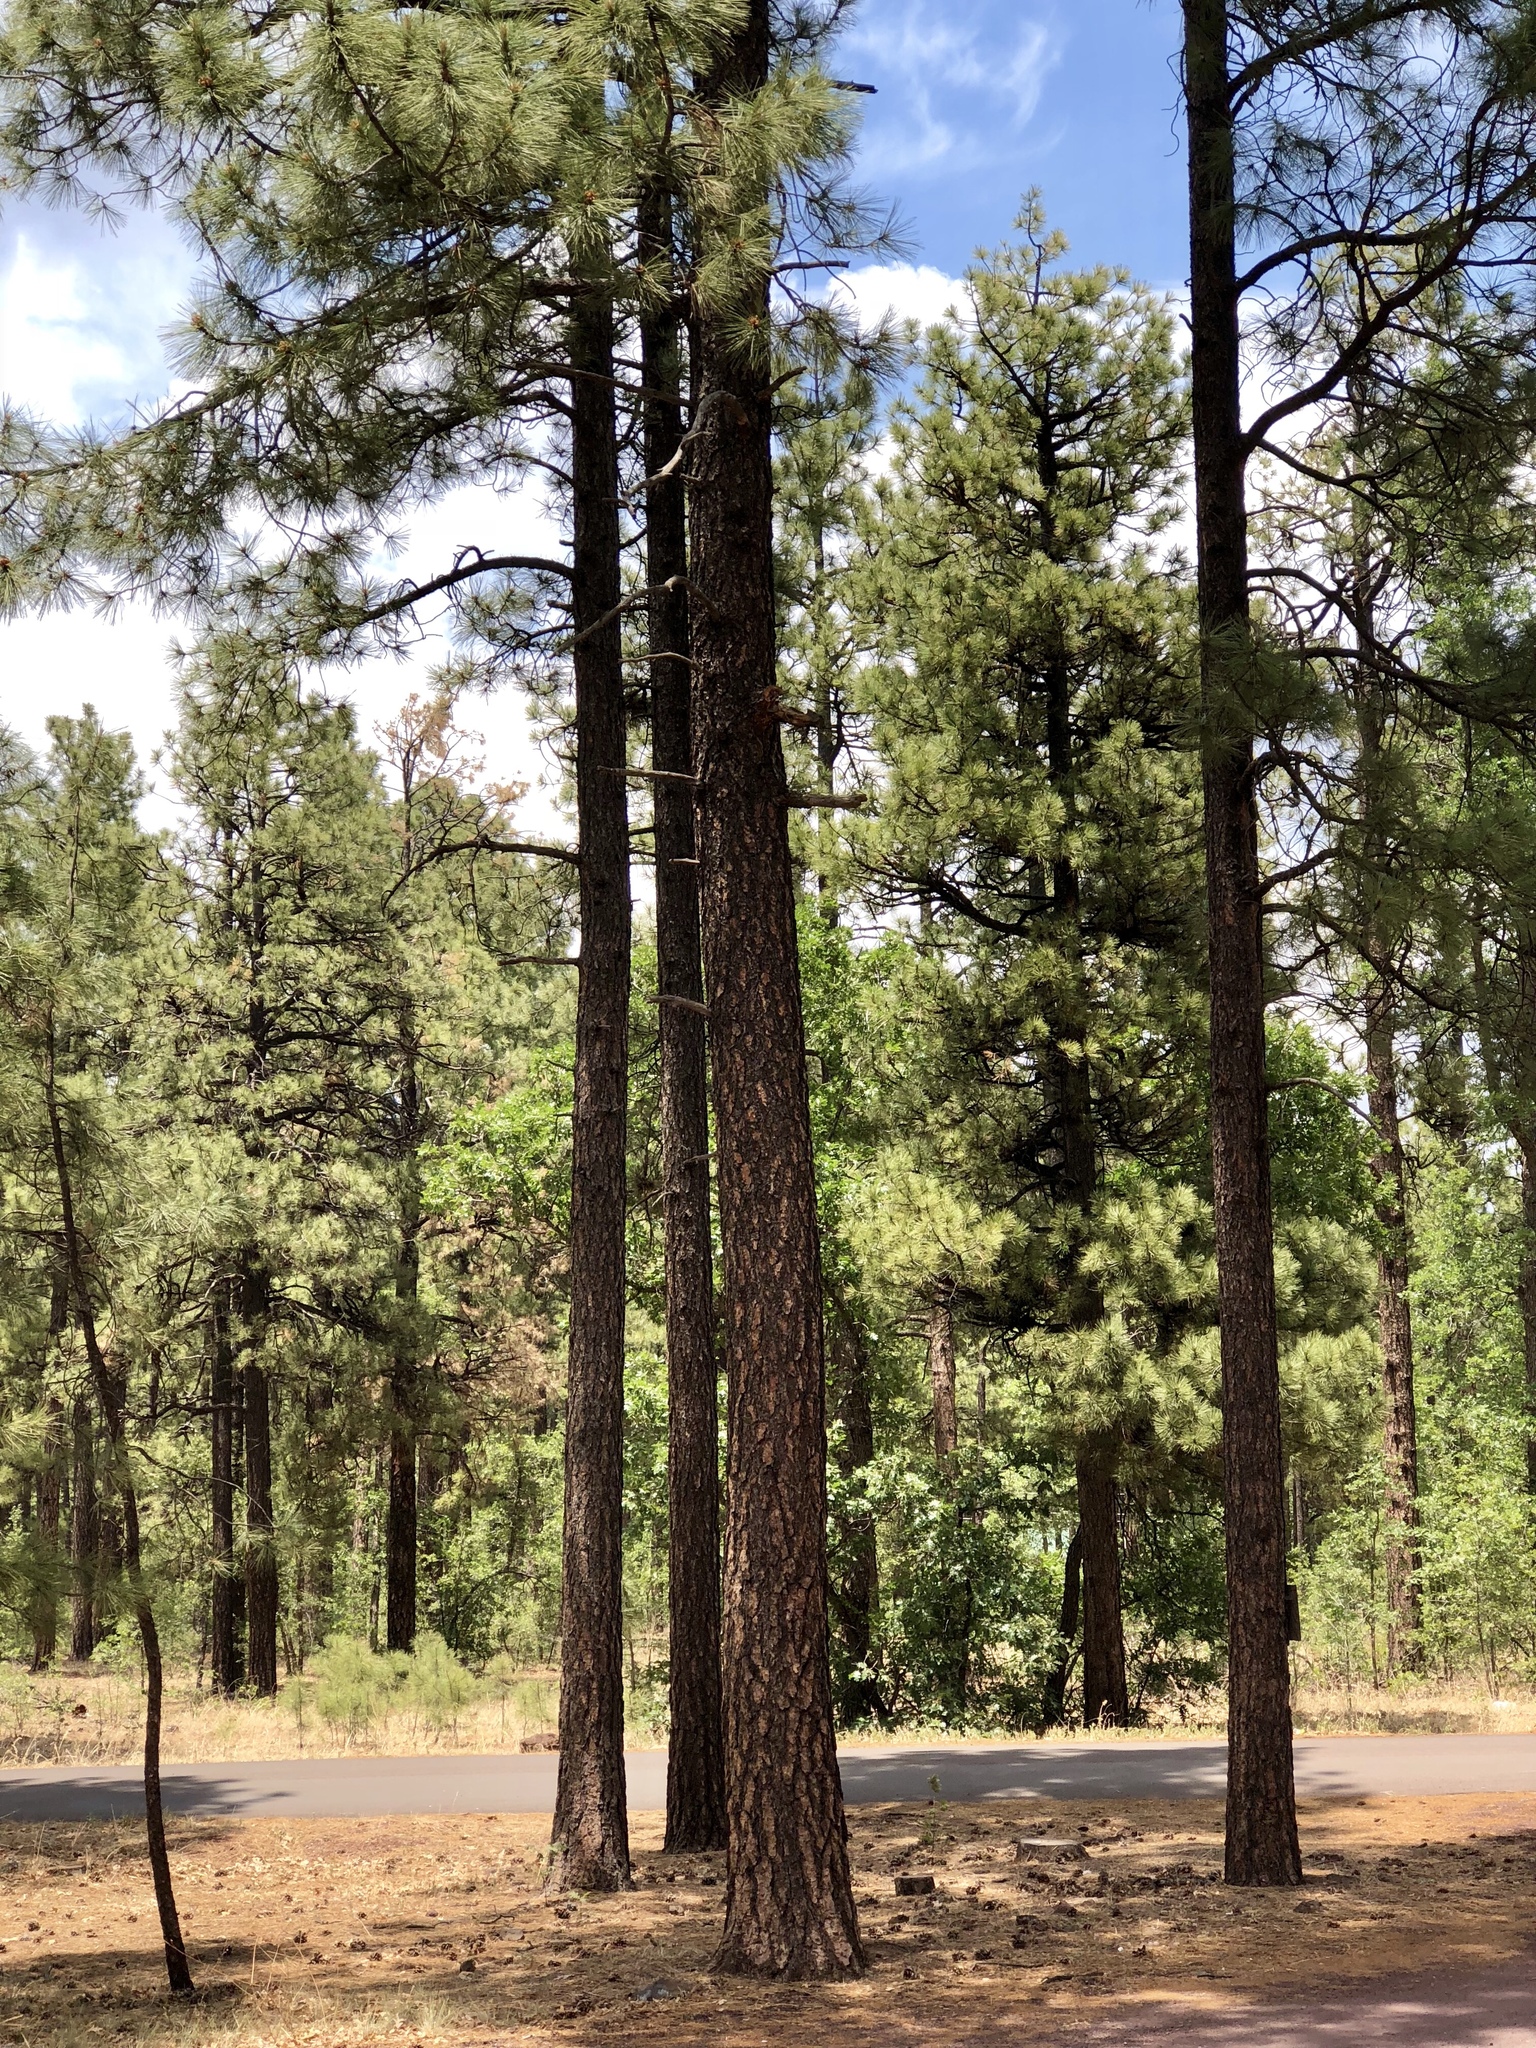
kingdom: Plantae
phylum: Tracheophyta
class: Pinopsida
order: Pinales
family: Pinaceae
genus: Pinus
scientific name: Pinus ponderosa
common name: Western yellow-pine
